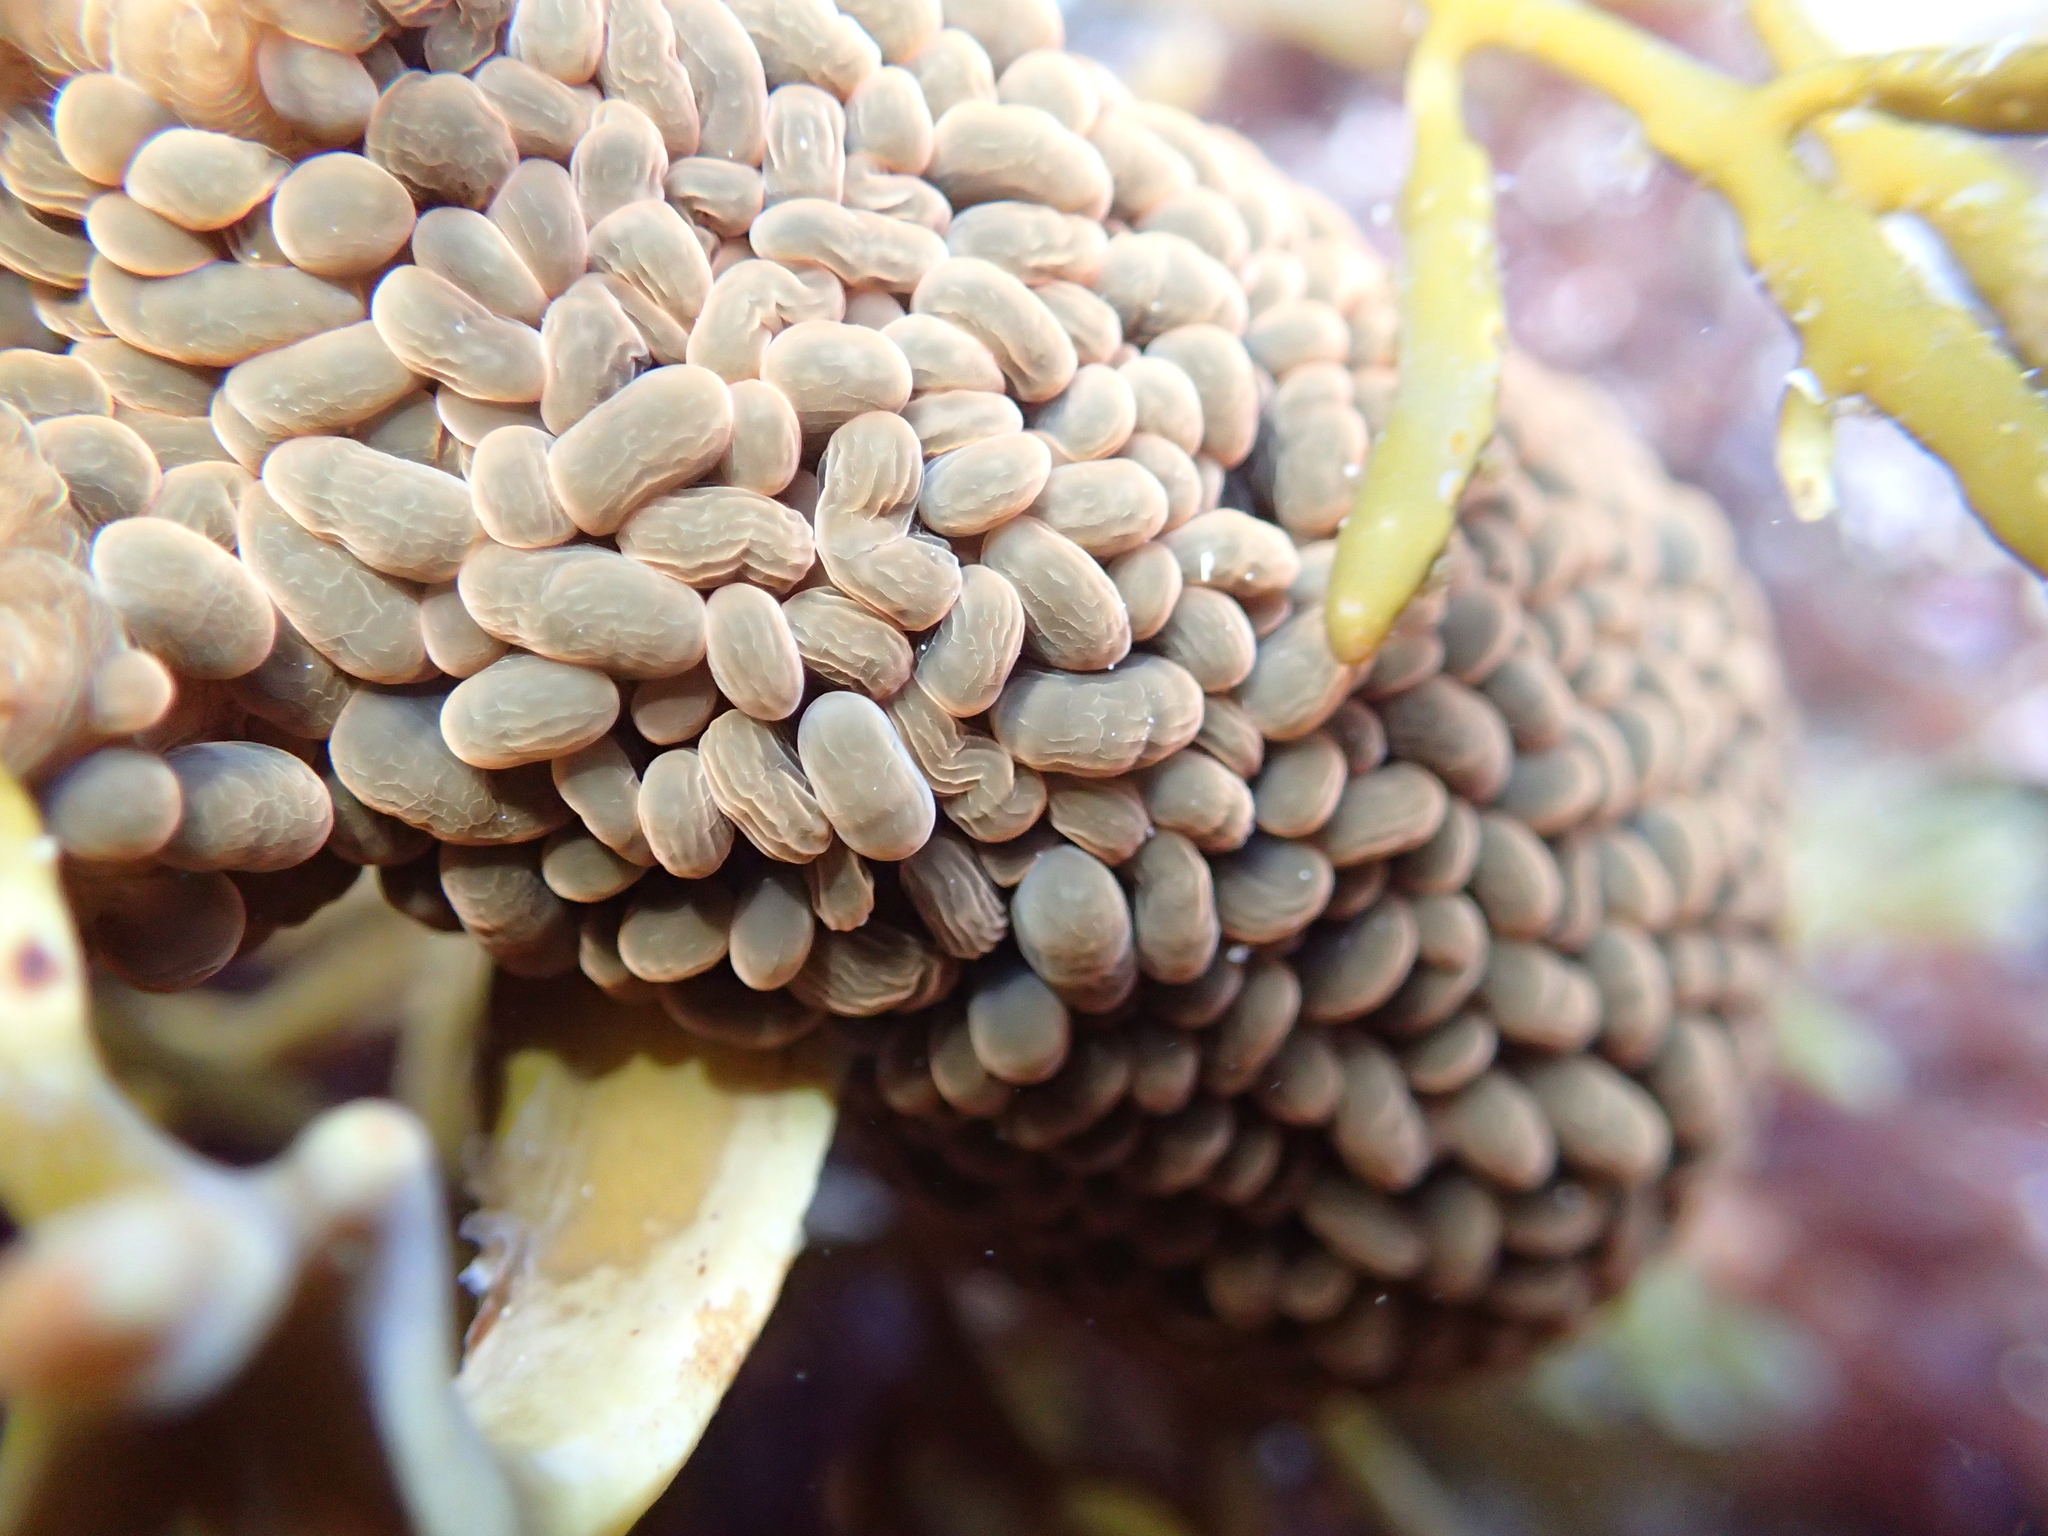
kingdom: Animalia
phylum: Cnidaria
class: Anthozoa
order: Actiniaria
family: Actiniidae
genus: Phlyctenactis
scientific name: Phlyctenactis tuberculosa
